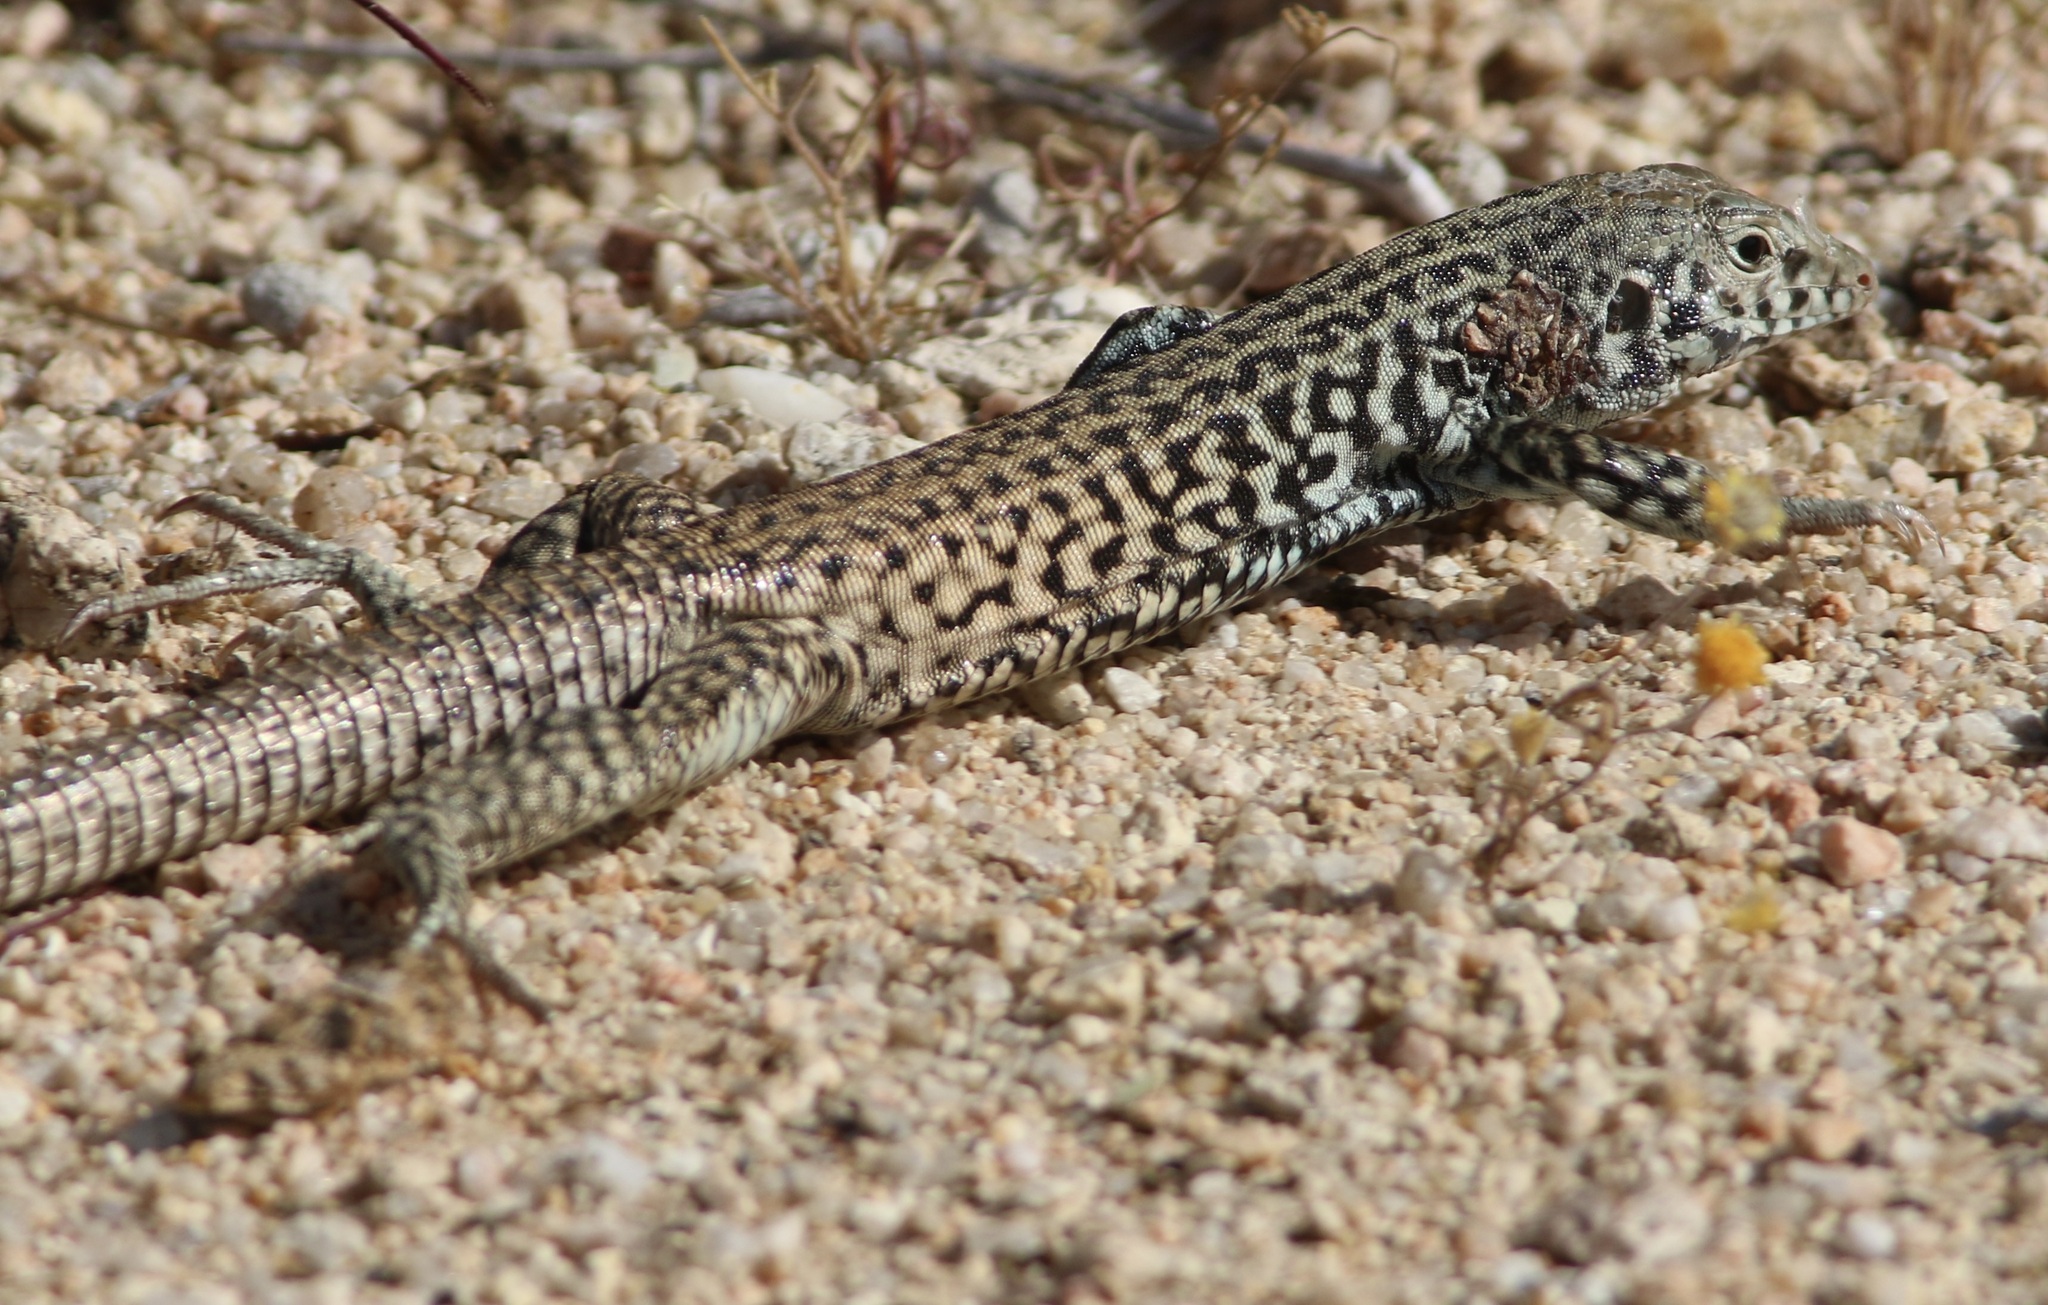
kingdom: Animalia
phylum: Chordata
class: Squamata
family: Teiidae
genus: Aspidoscelis
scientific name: Aspidoscelis tigris
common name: Tiger whiptail
